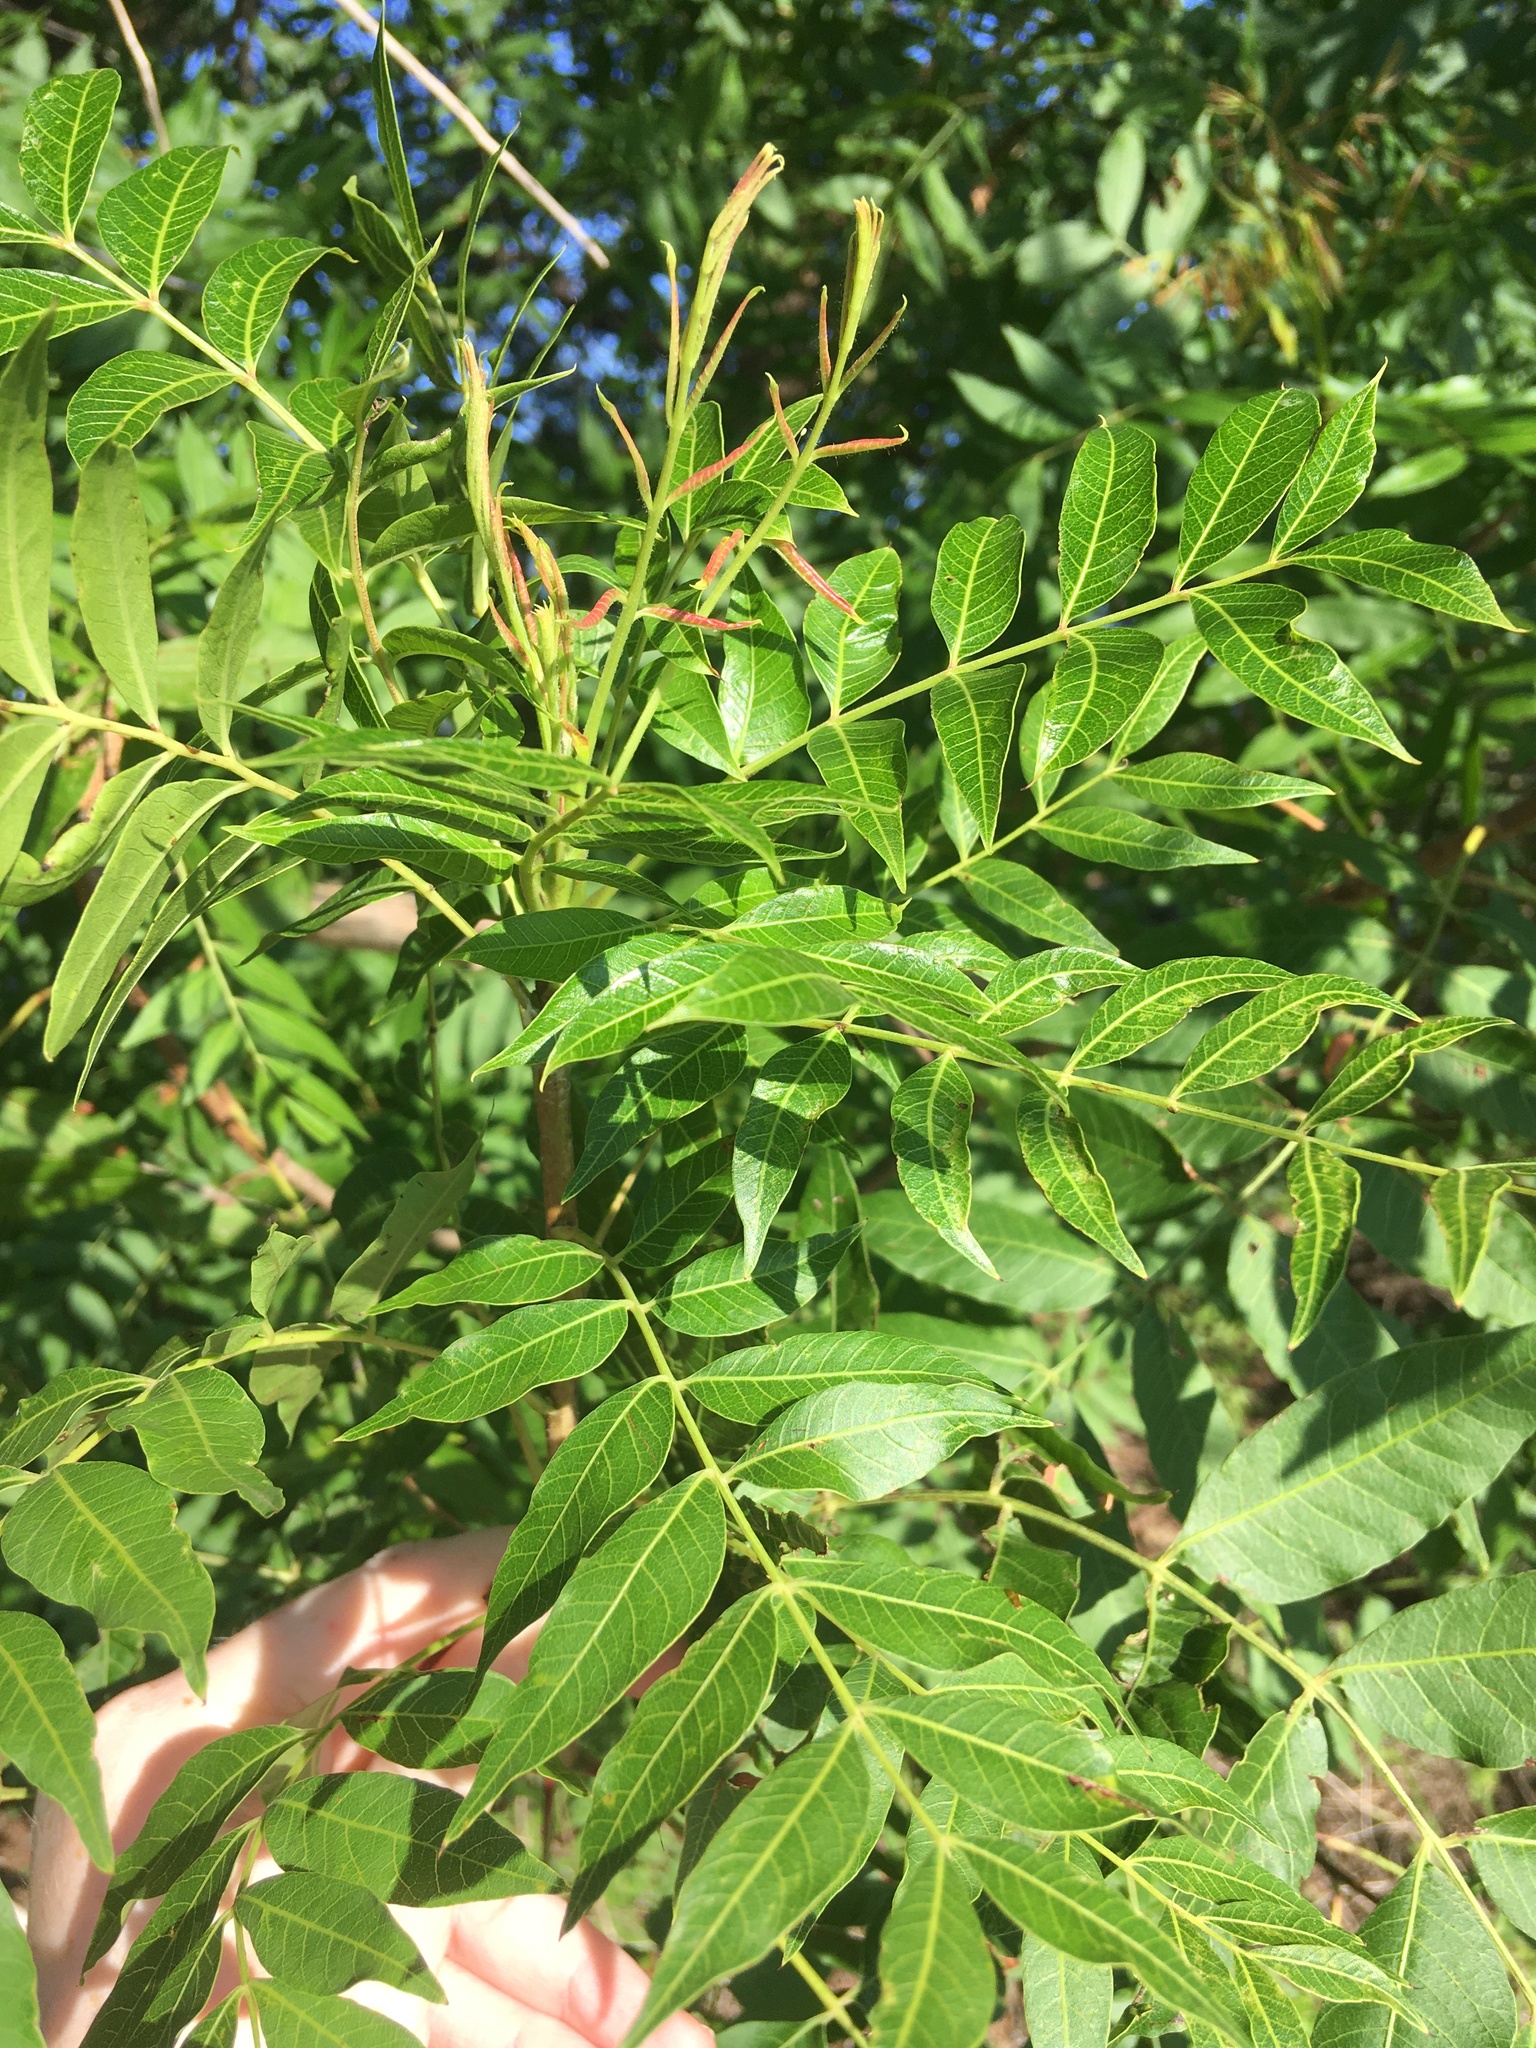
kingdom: Plantae
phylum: Tracheophyta
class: Magnoliopsida
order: Sapindales
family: Anacardiaceae
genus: Pistacia
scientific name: Pistacia chinensis
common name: Chinese pistache
